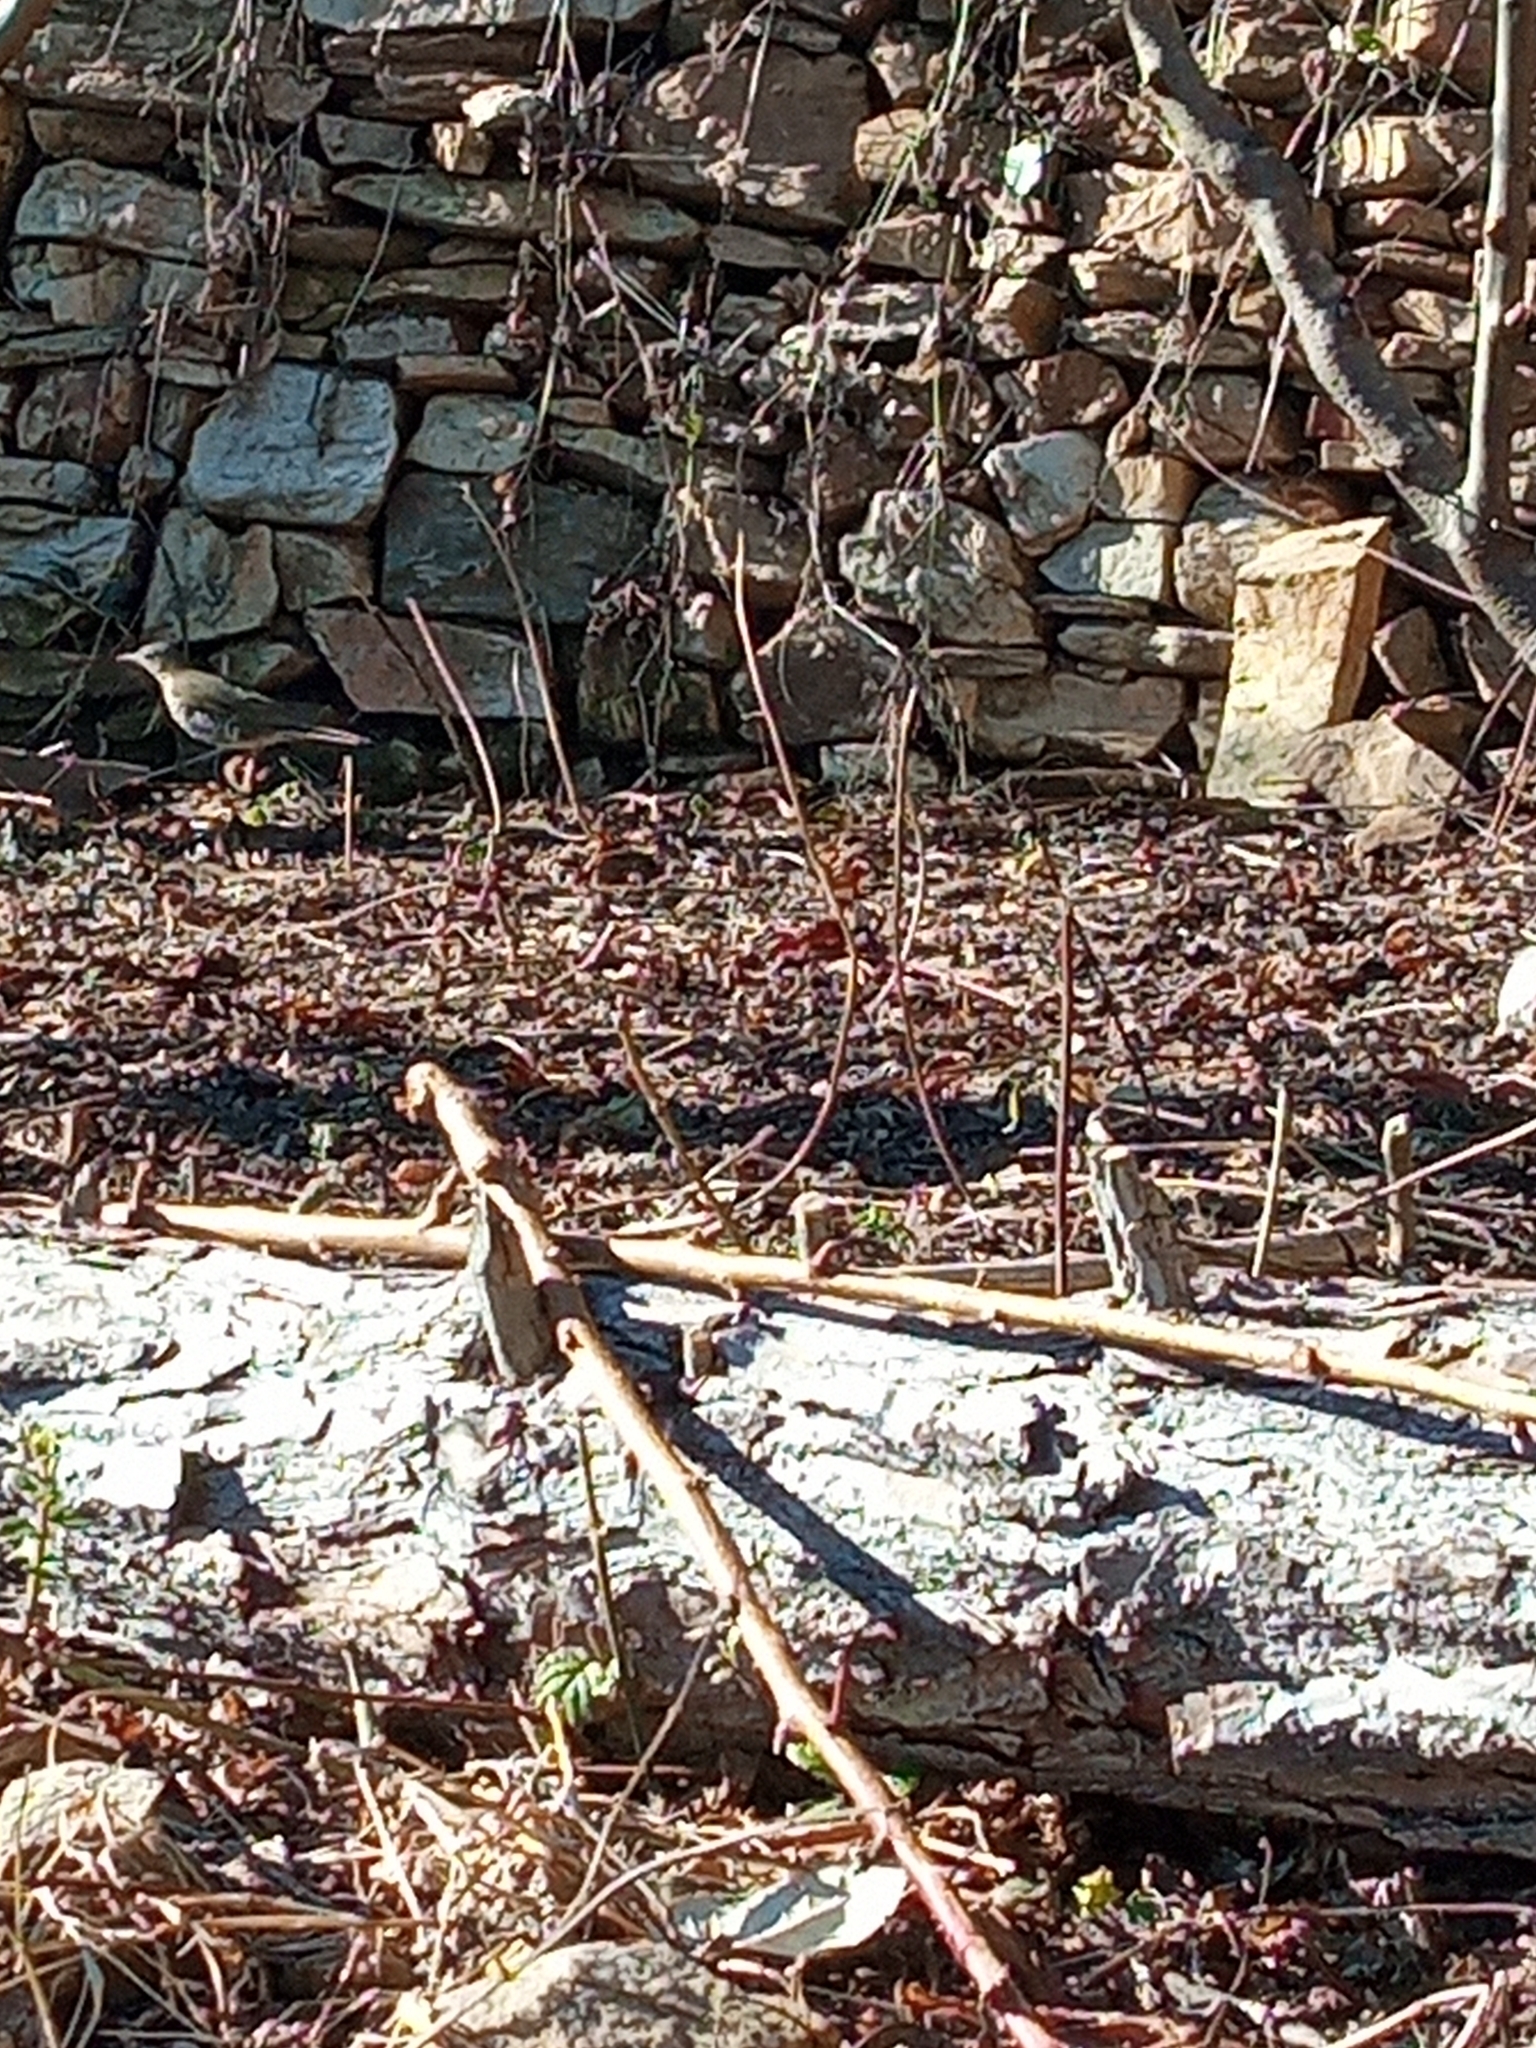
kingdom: Animalia
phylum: Chordata
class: Aves
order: Passeriformes
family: Turdidae
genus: Turdus
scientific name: Turdus viscivorus
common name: Mistle thrush
